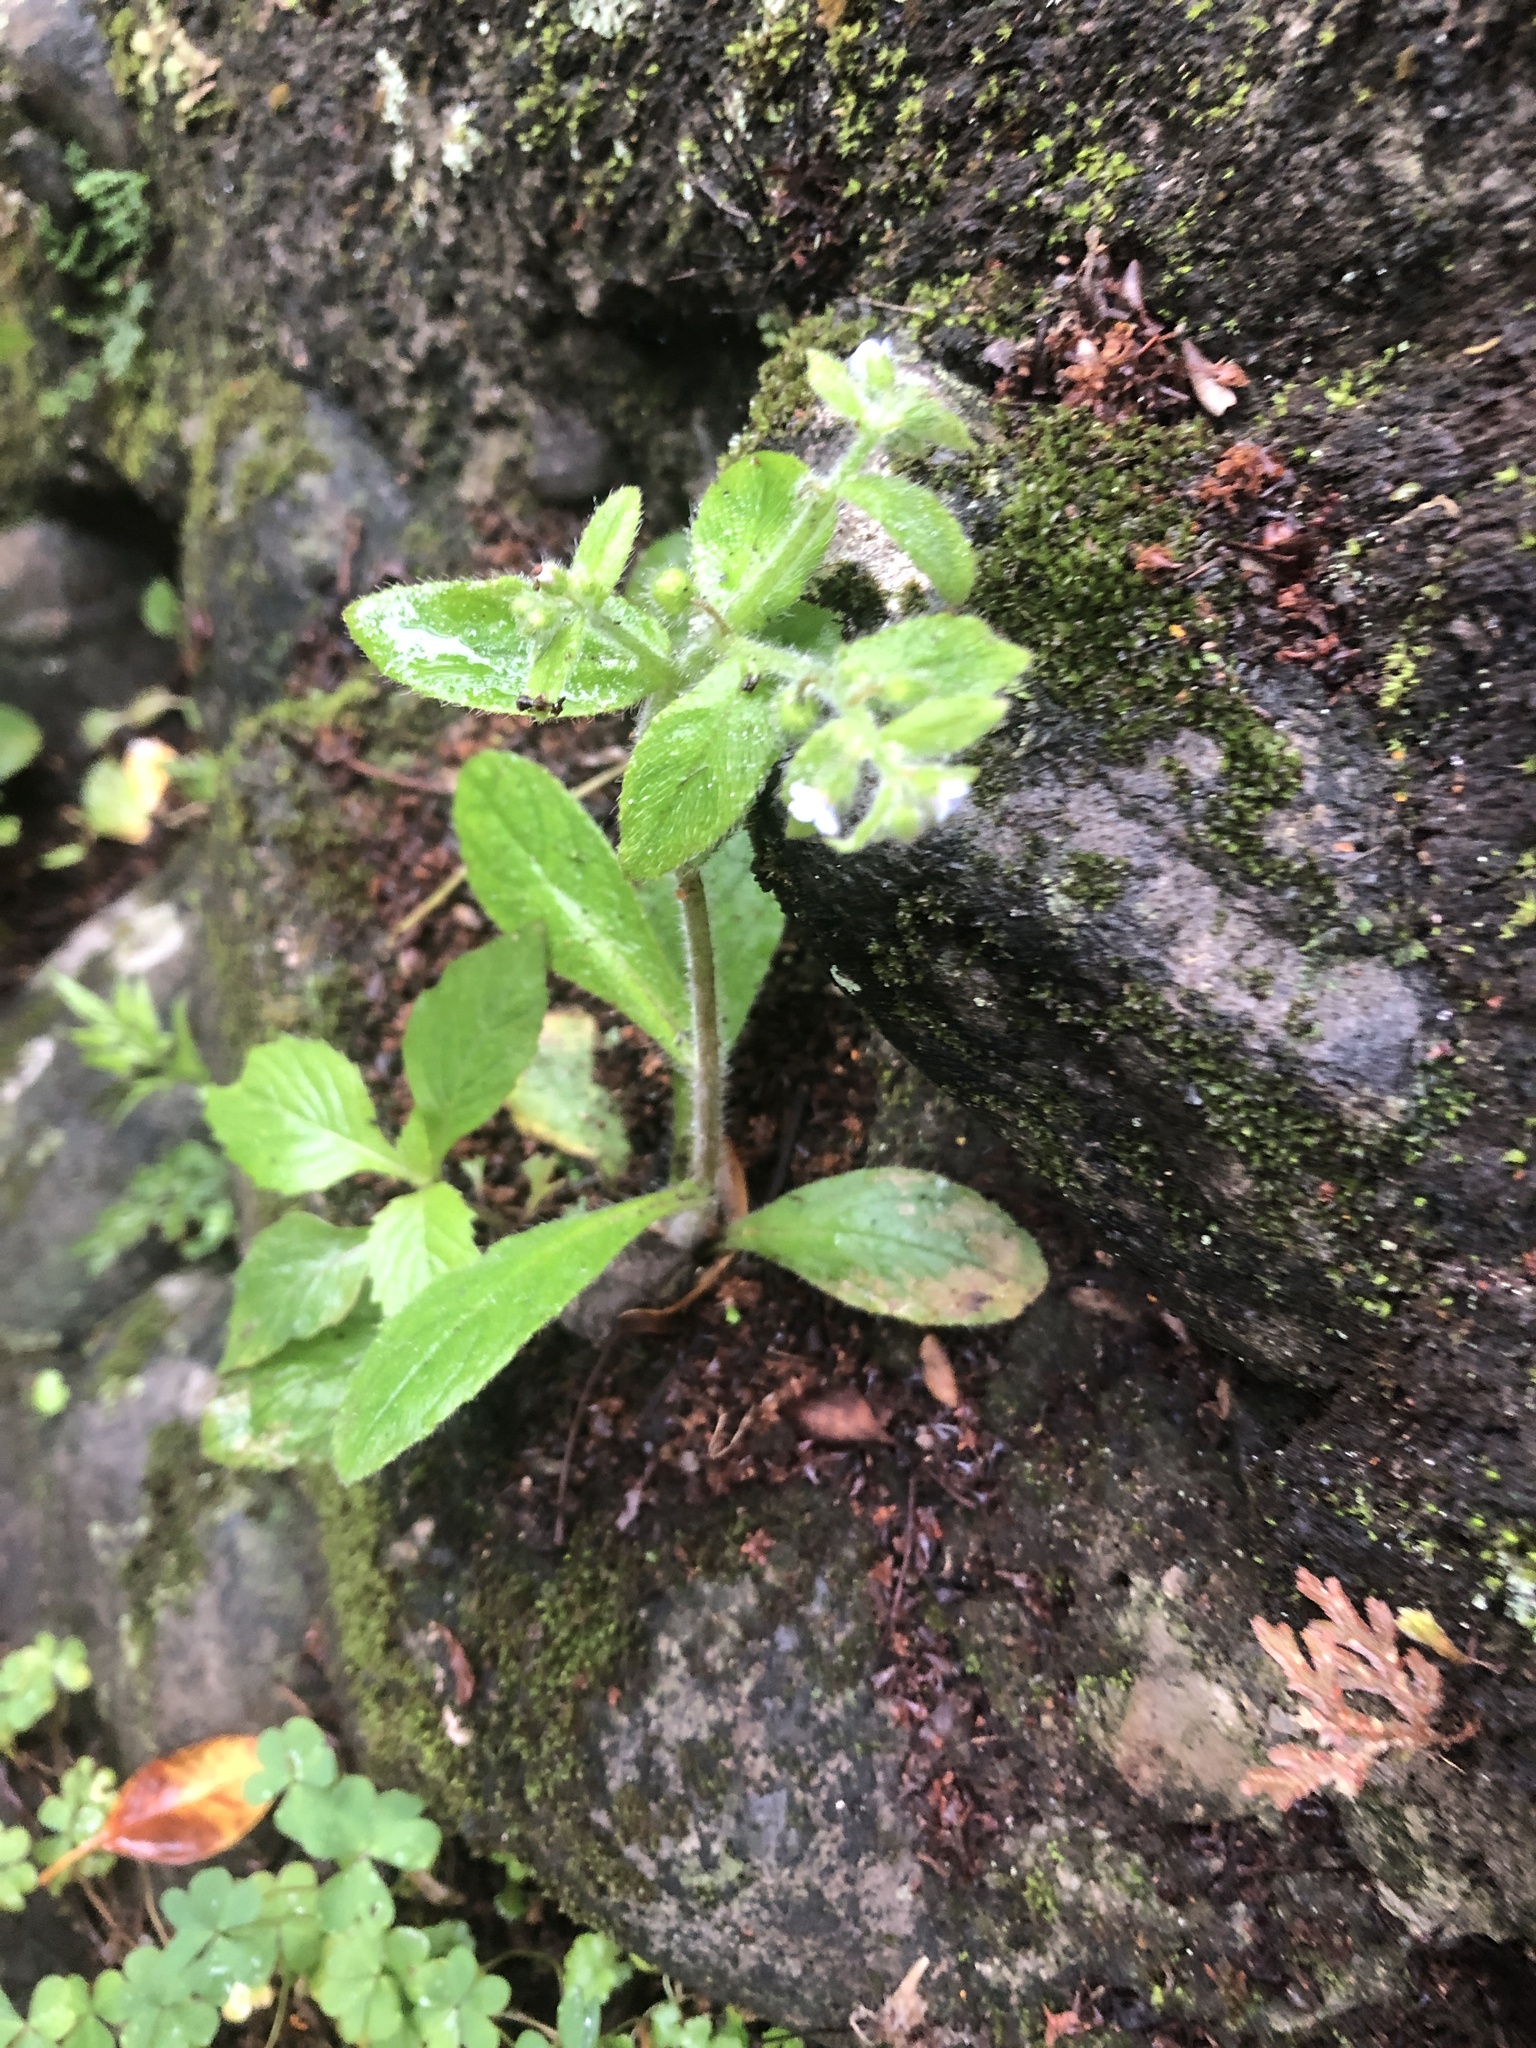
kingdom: Plantae
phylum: Tracheophyta
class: Magnoliopsida
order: Boraginales
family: Boraginaceae
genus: Thyrocarpus
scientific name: Thyrocarpus sampsonii
